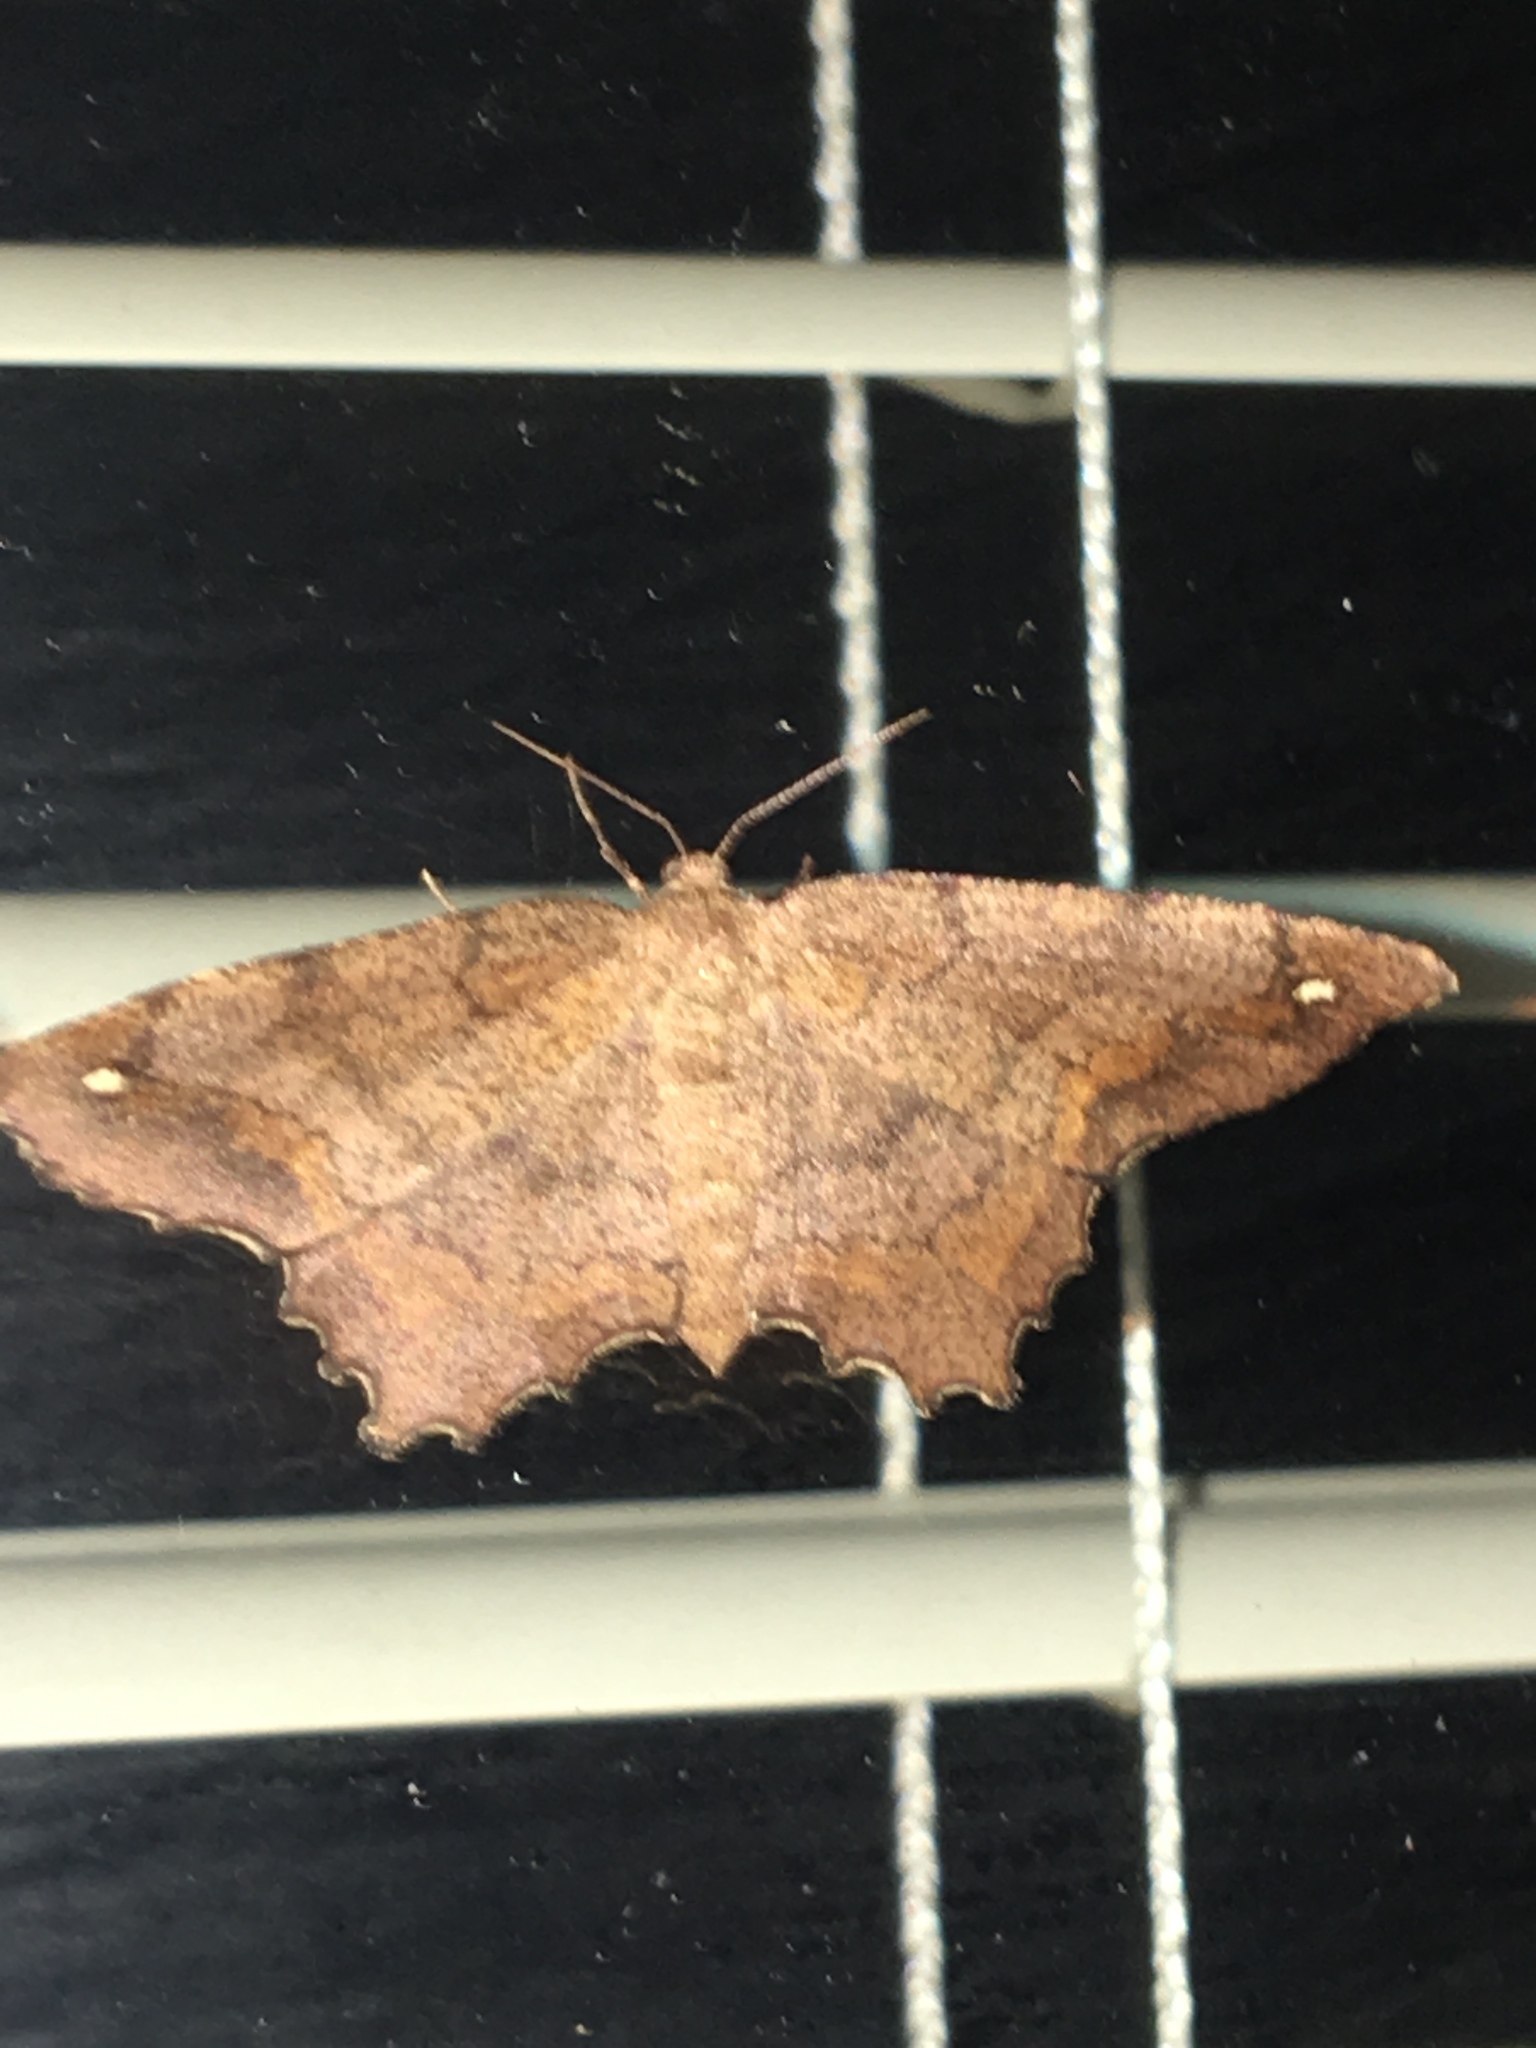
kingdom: Animalia
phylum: Arthropoda
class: Insecta
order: Lepidoptera
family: Geometridae
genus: Hypagyrtis
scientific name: Hypagyrtis
